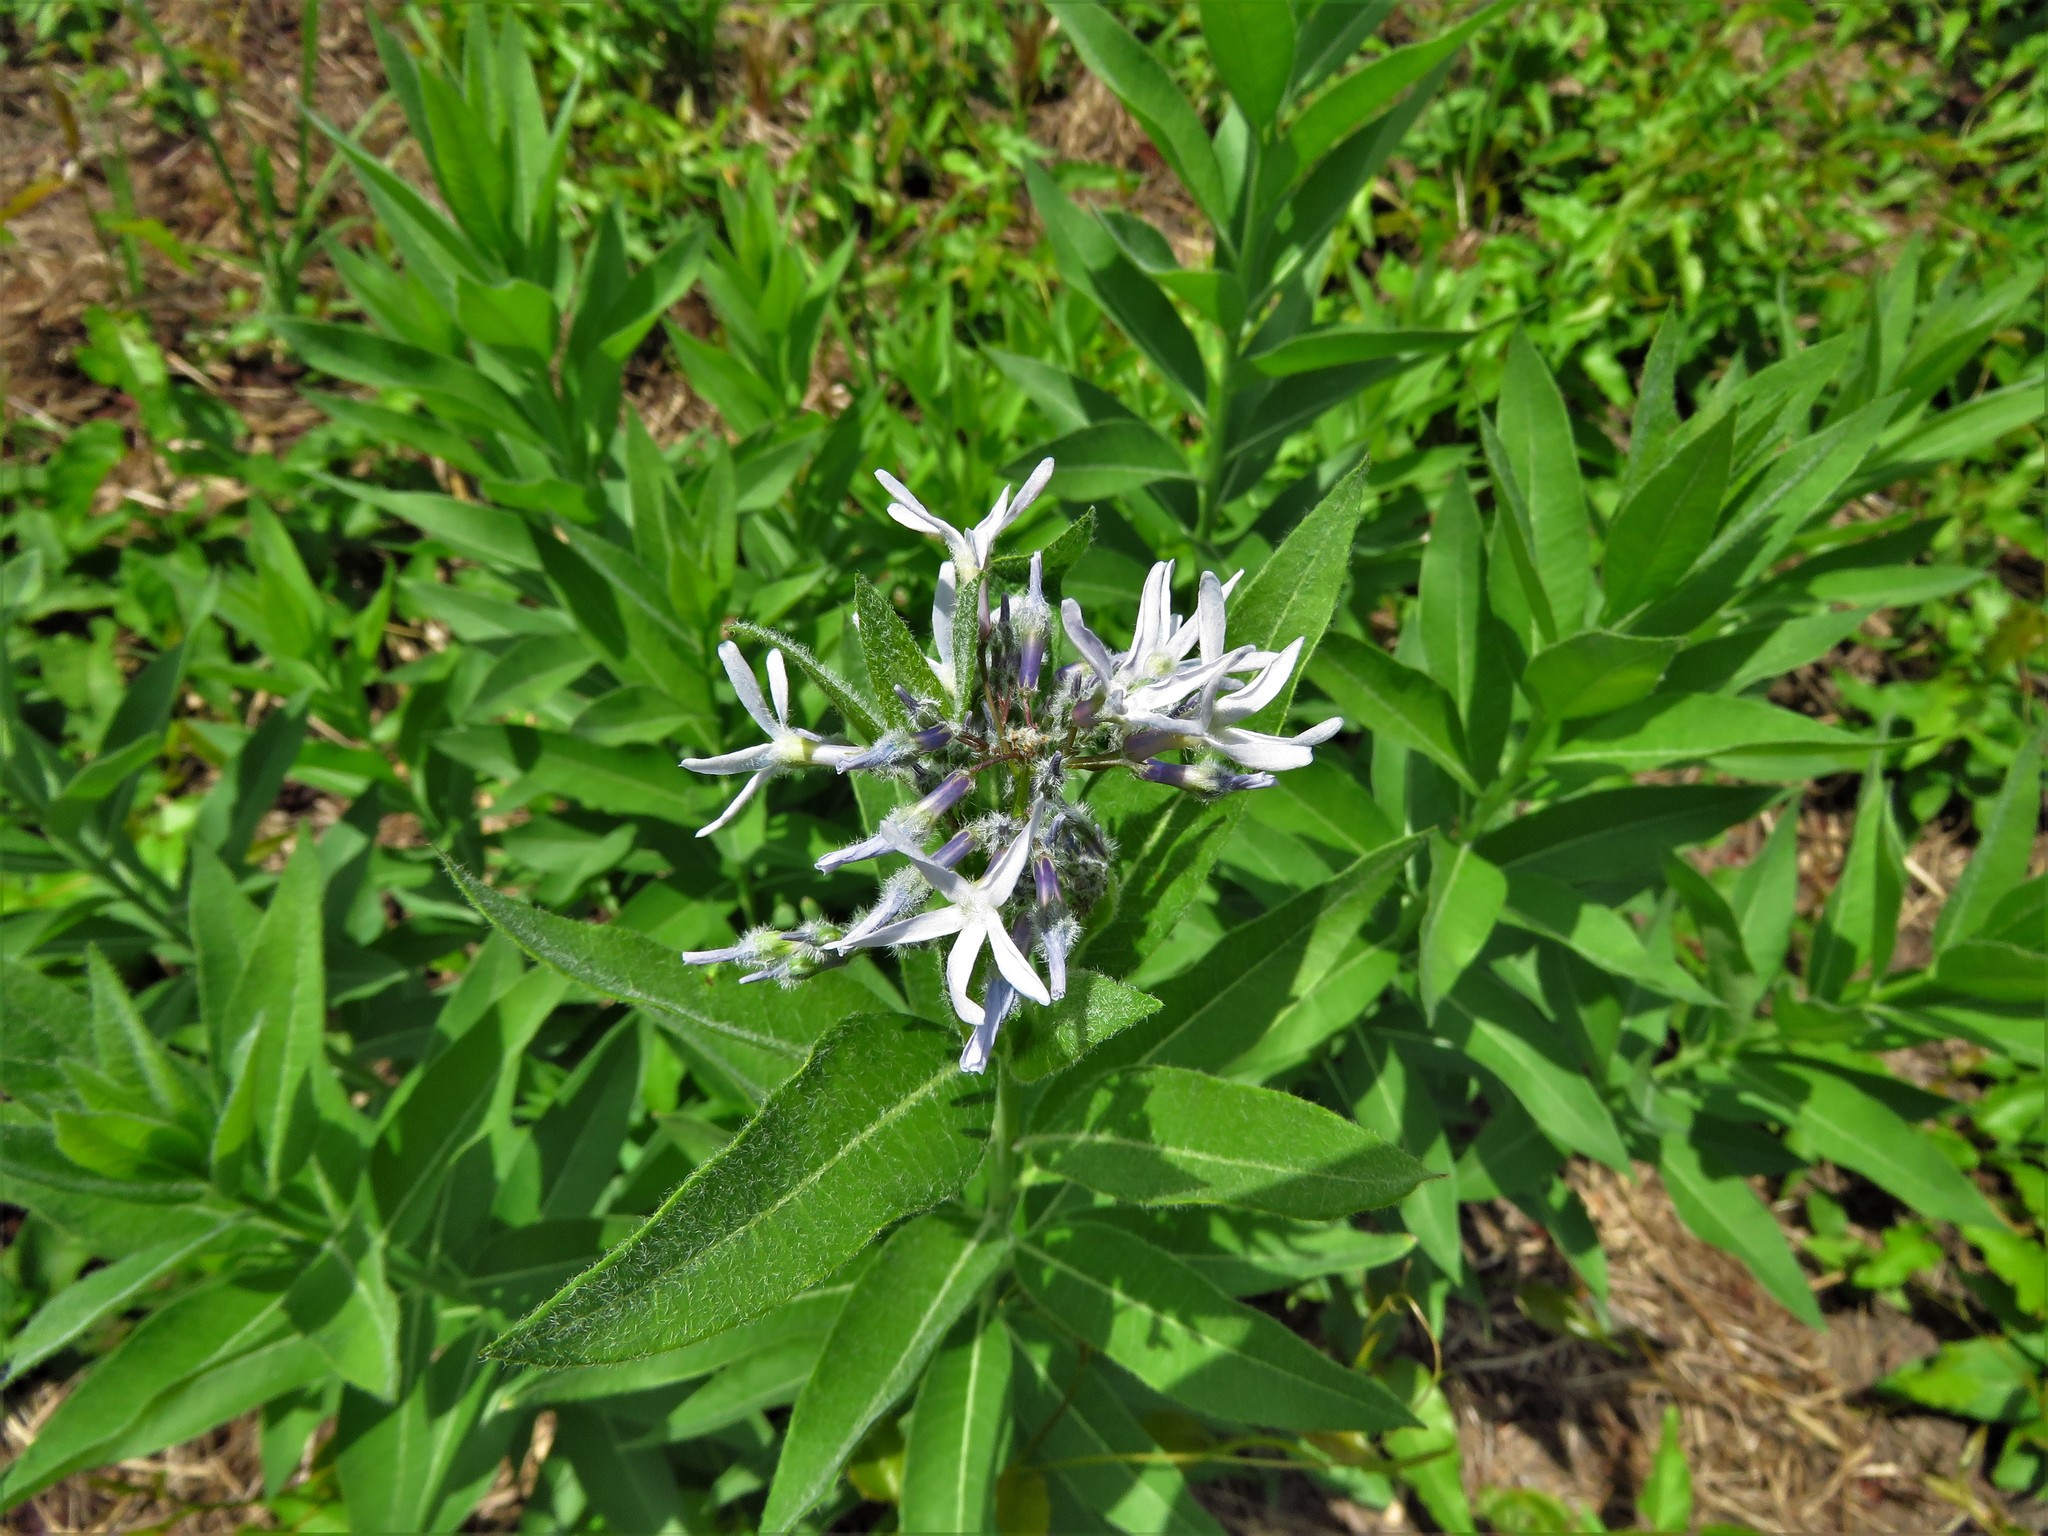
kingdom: Plantae
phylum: Tracheophyta
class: Magnoliopsida
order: Gentianales
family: Apocynaceae
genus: Amsonia
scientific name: Amsonia tabernaemontana
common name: Texas-star
